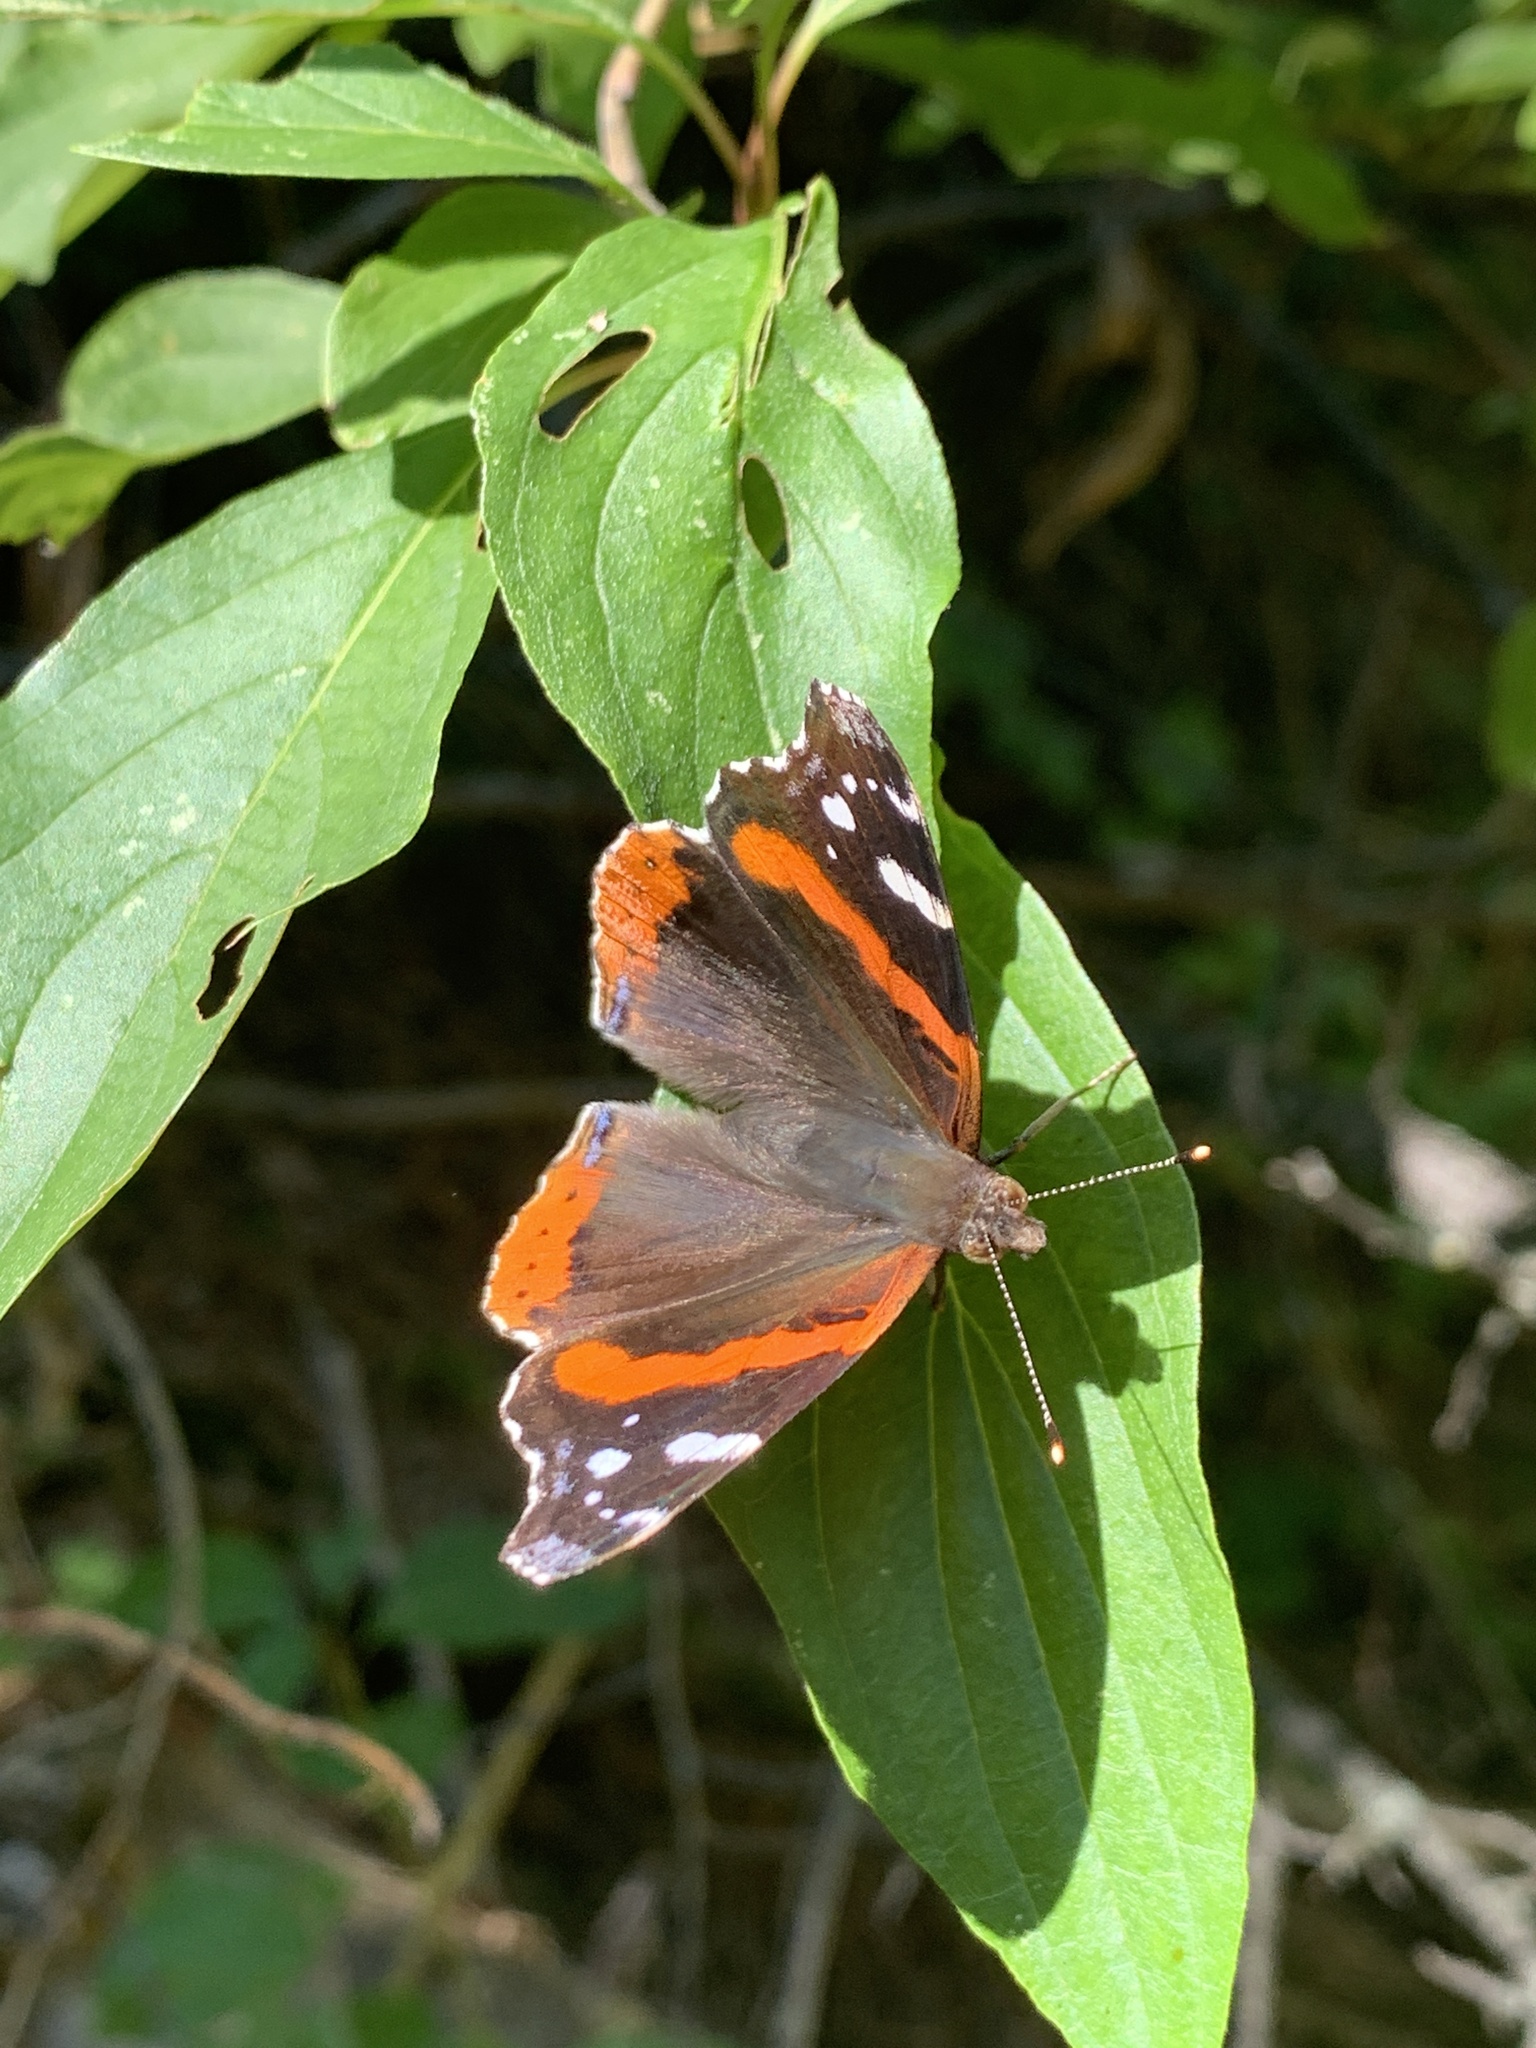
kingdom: Animalia
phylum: Arthropoda
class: Insecta
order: Lepidoptera
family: Nymphalidae
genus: Vanessa
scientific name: Vanessa atalanta
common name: Red admiral
